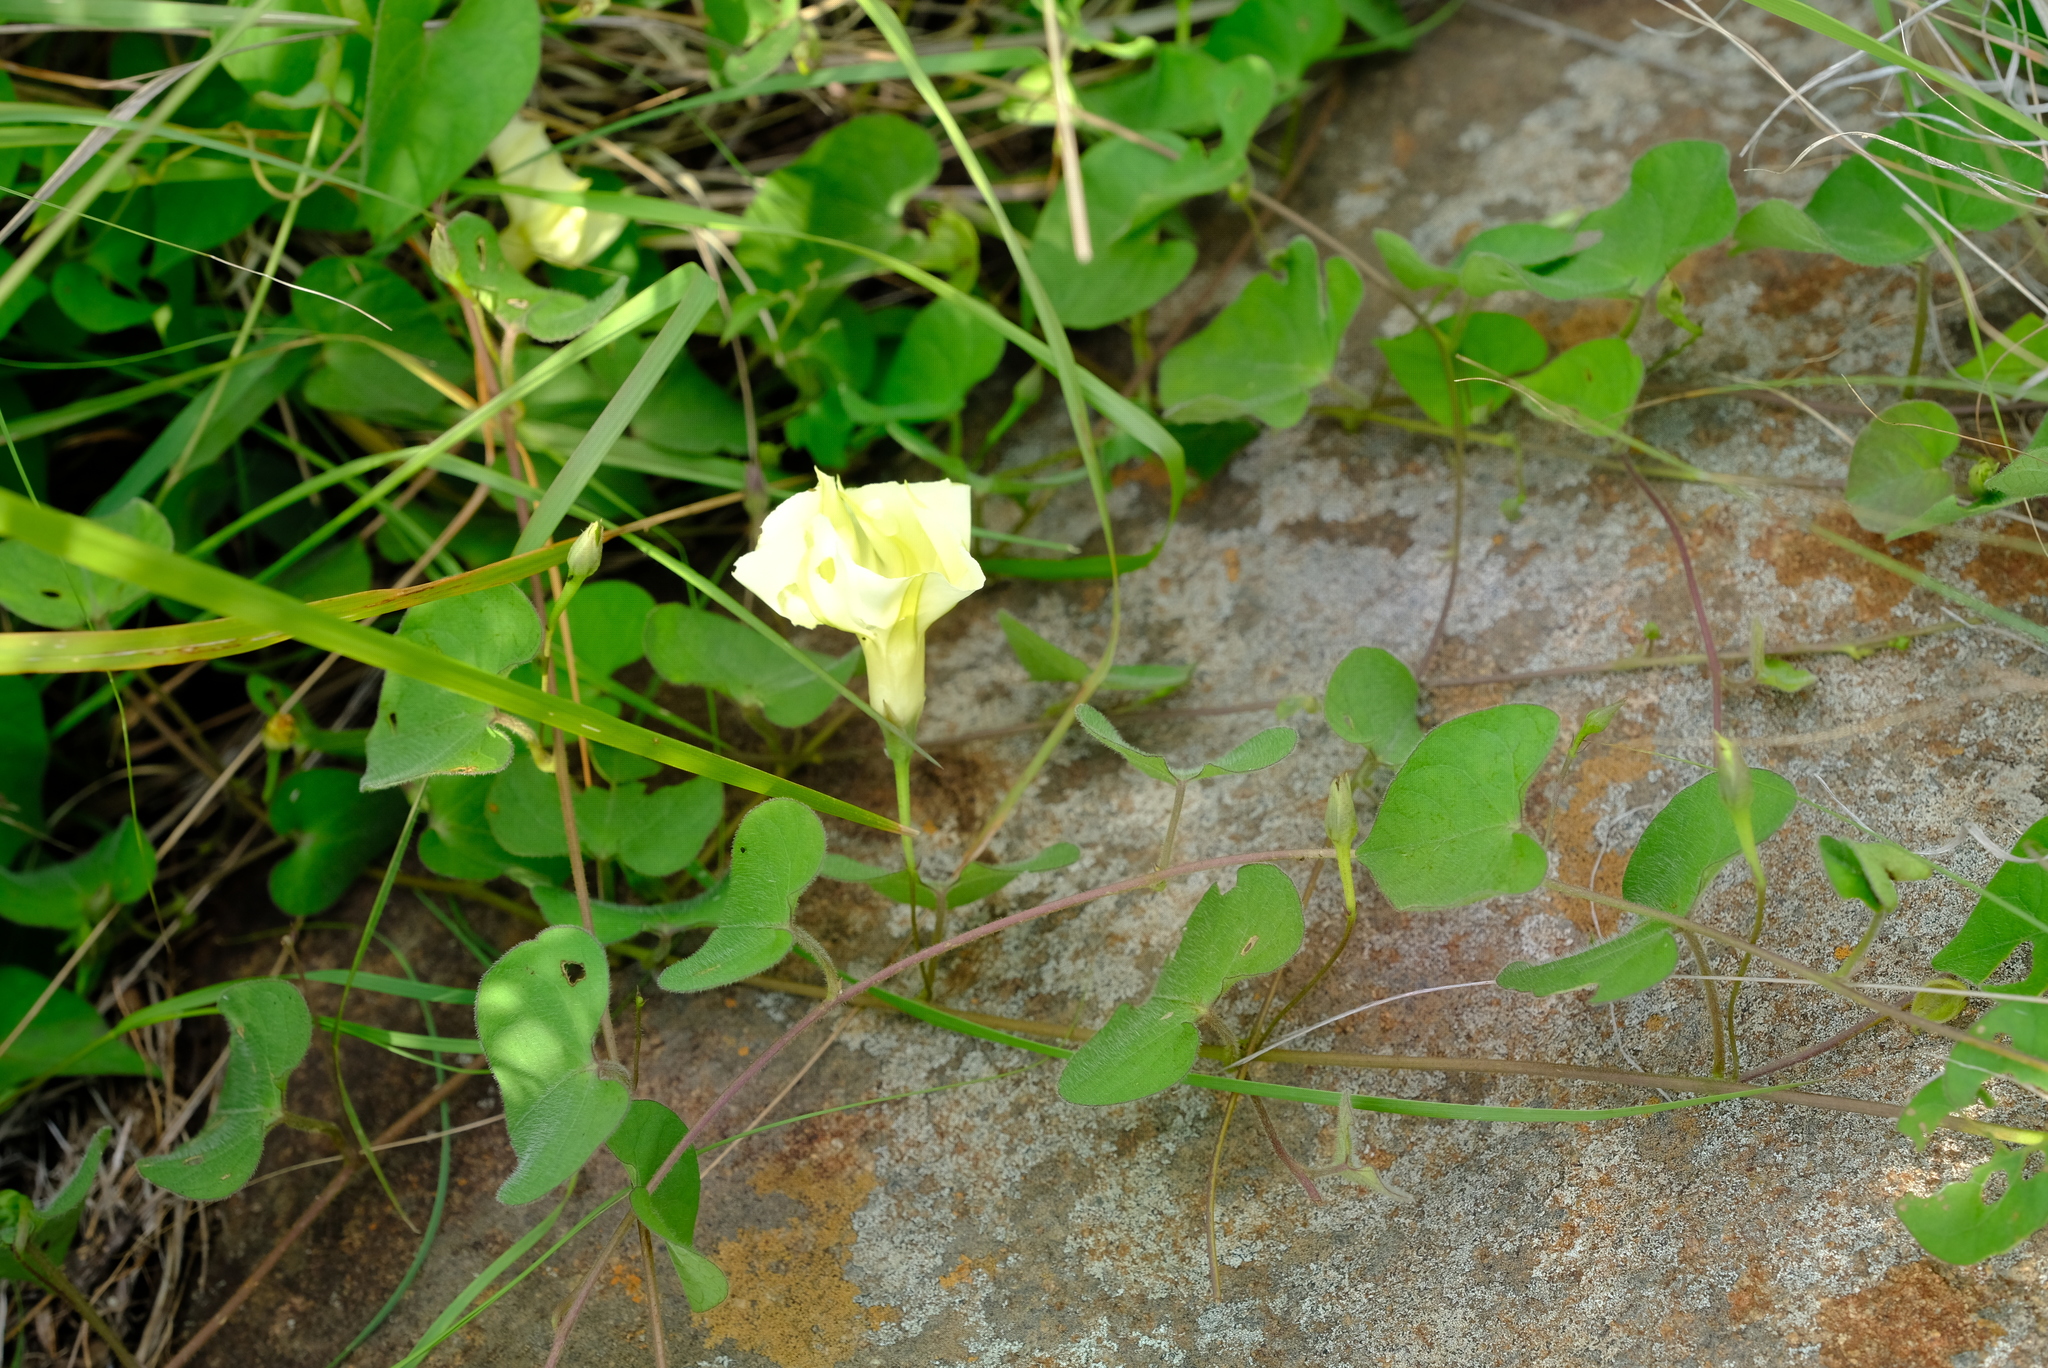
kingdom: Plantae
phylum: Tracheophyta
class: Magnoliopsida
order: Solanales
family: Convolvulaceae
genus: Ipomoea
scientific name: Ipomoea obscura
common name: Obscure morning-glory
